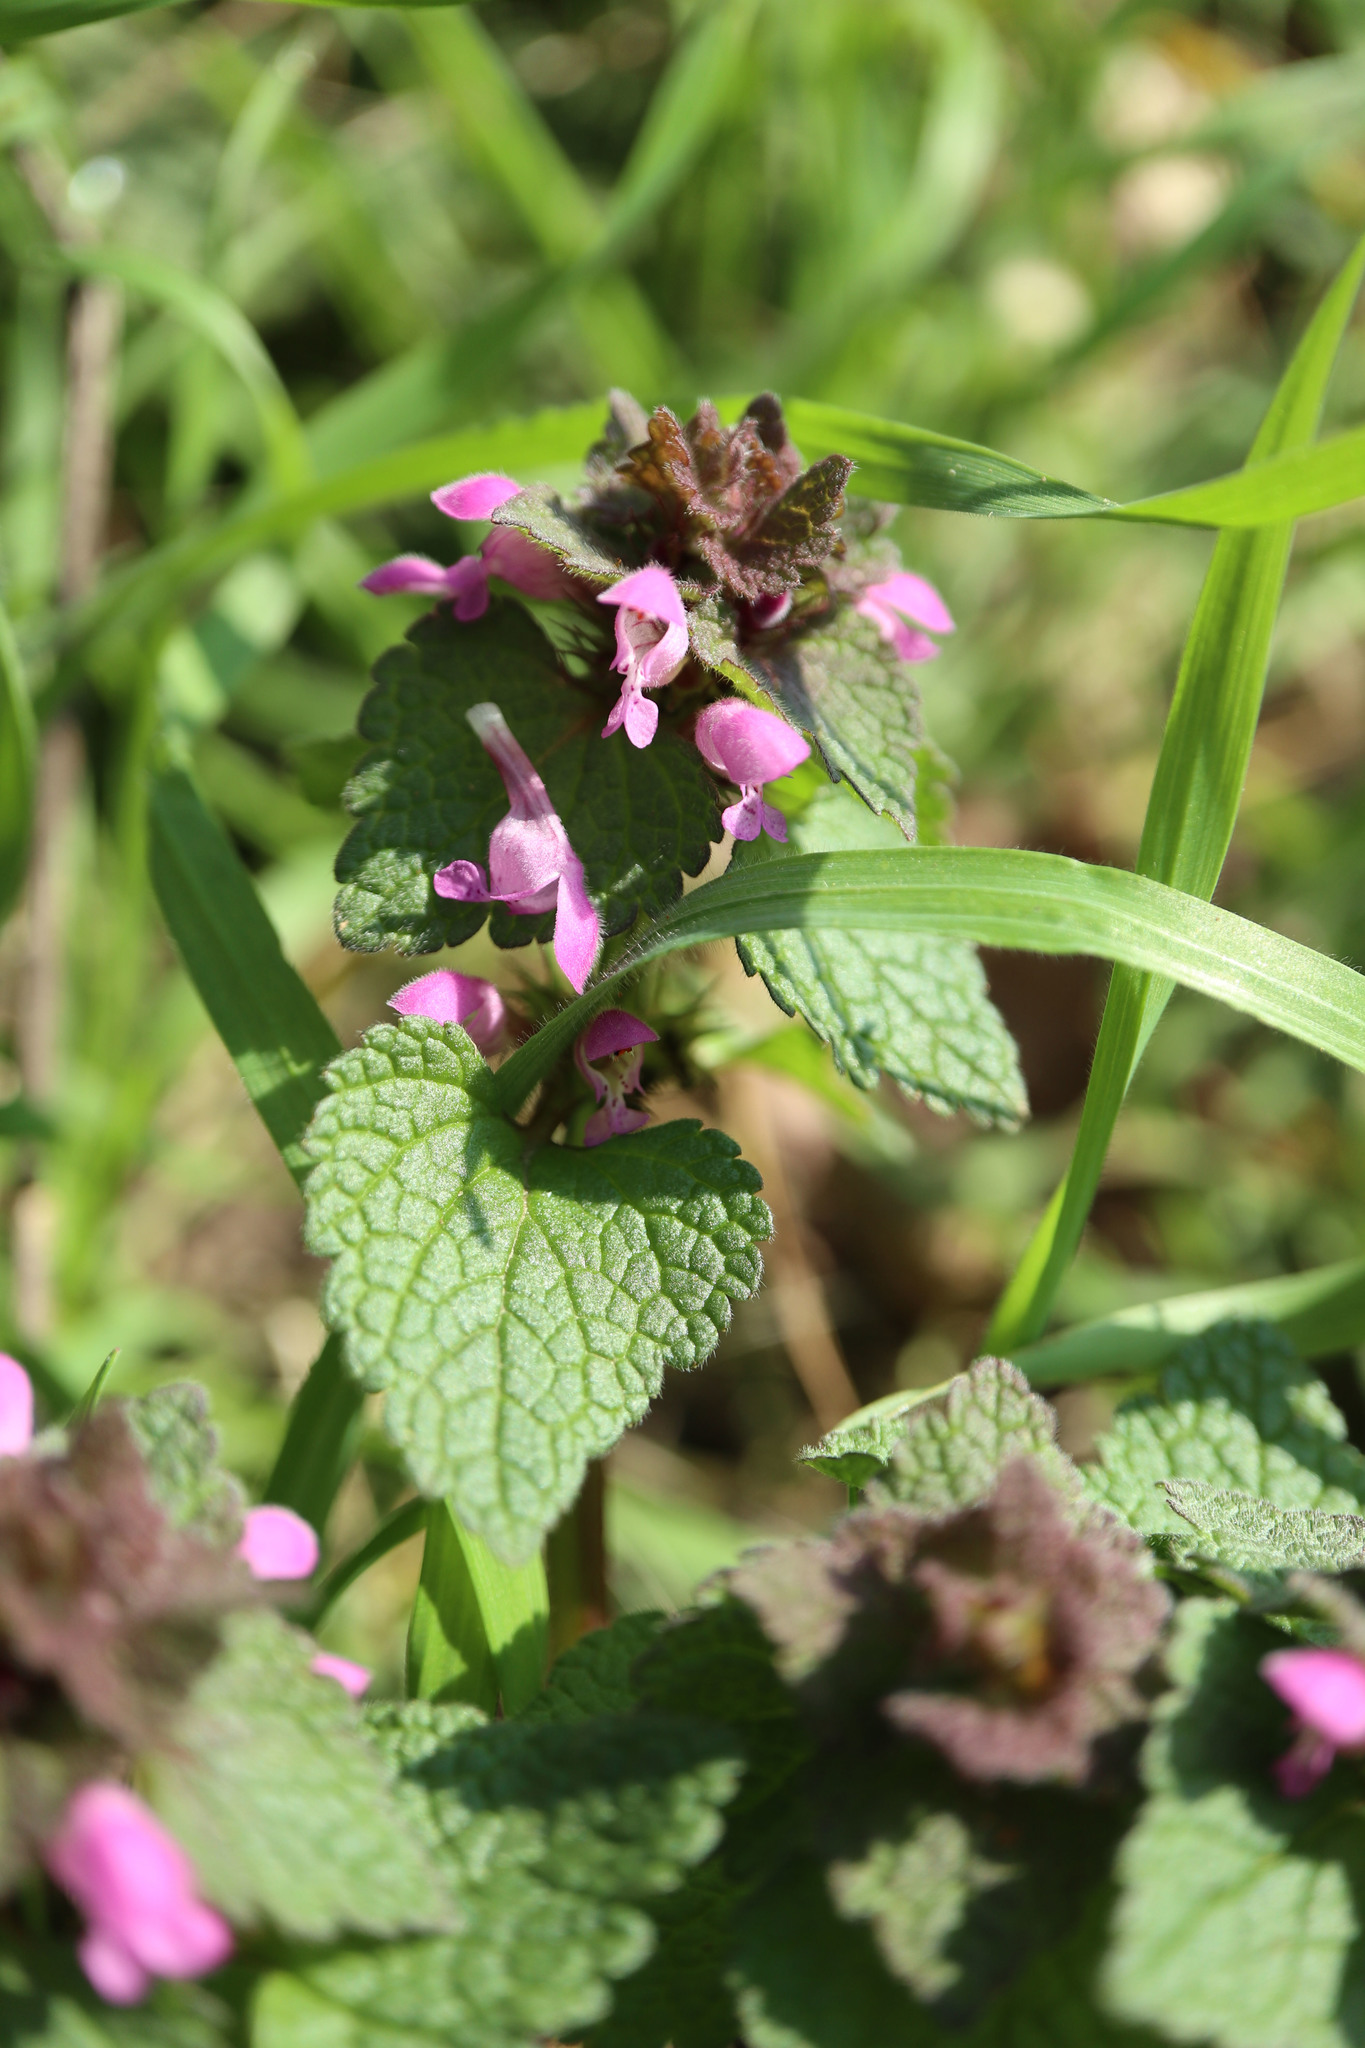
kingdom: Plantae
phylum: Tracheophyta
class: Magnoliopsida
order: Lamiales
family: Lamiaceae
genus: Lamium
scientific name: Lamium purpureum
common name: Red dead-nettle
